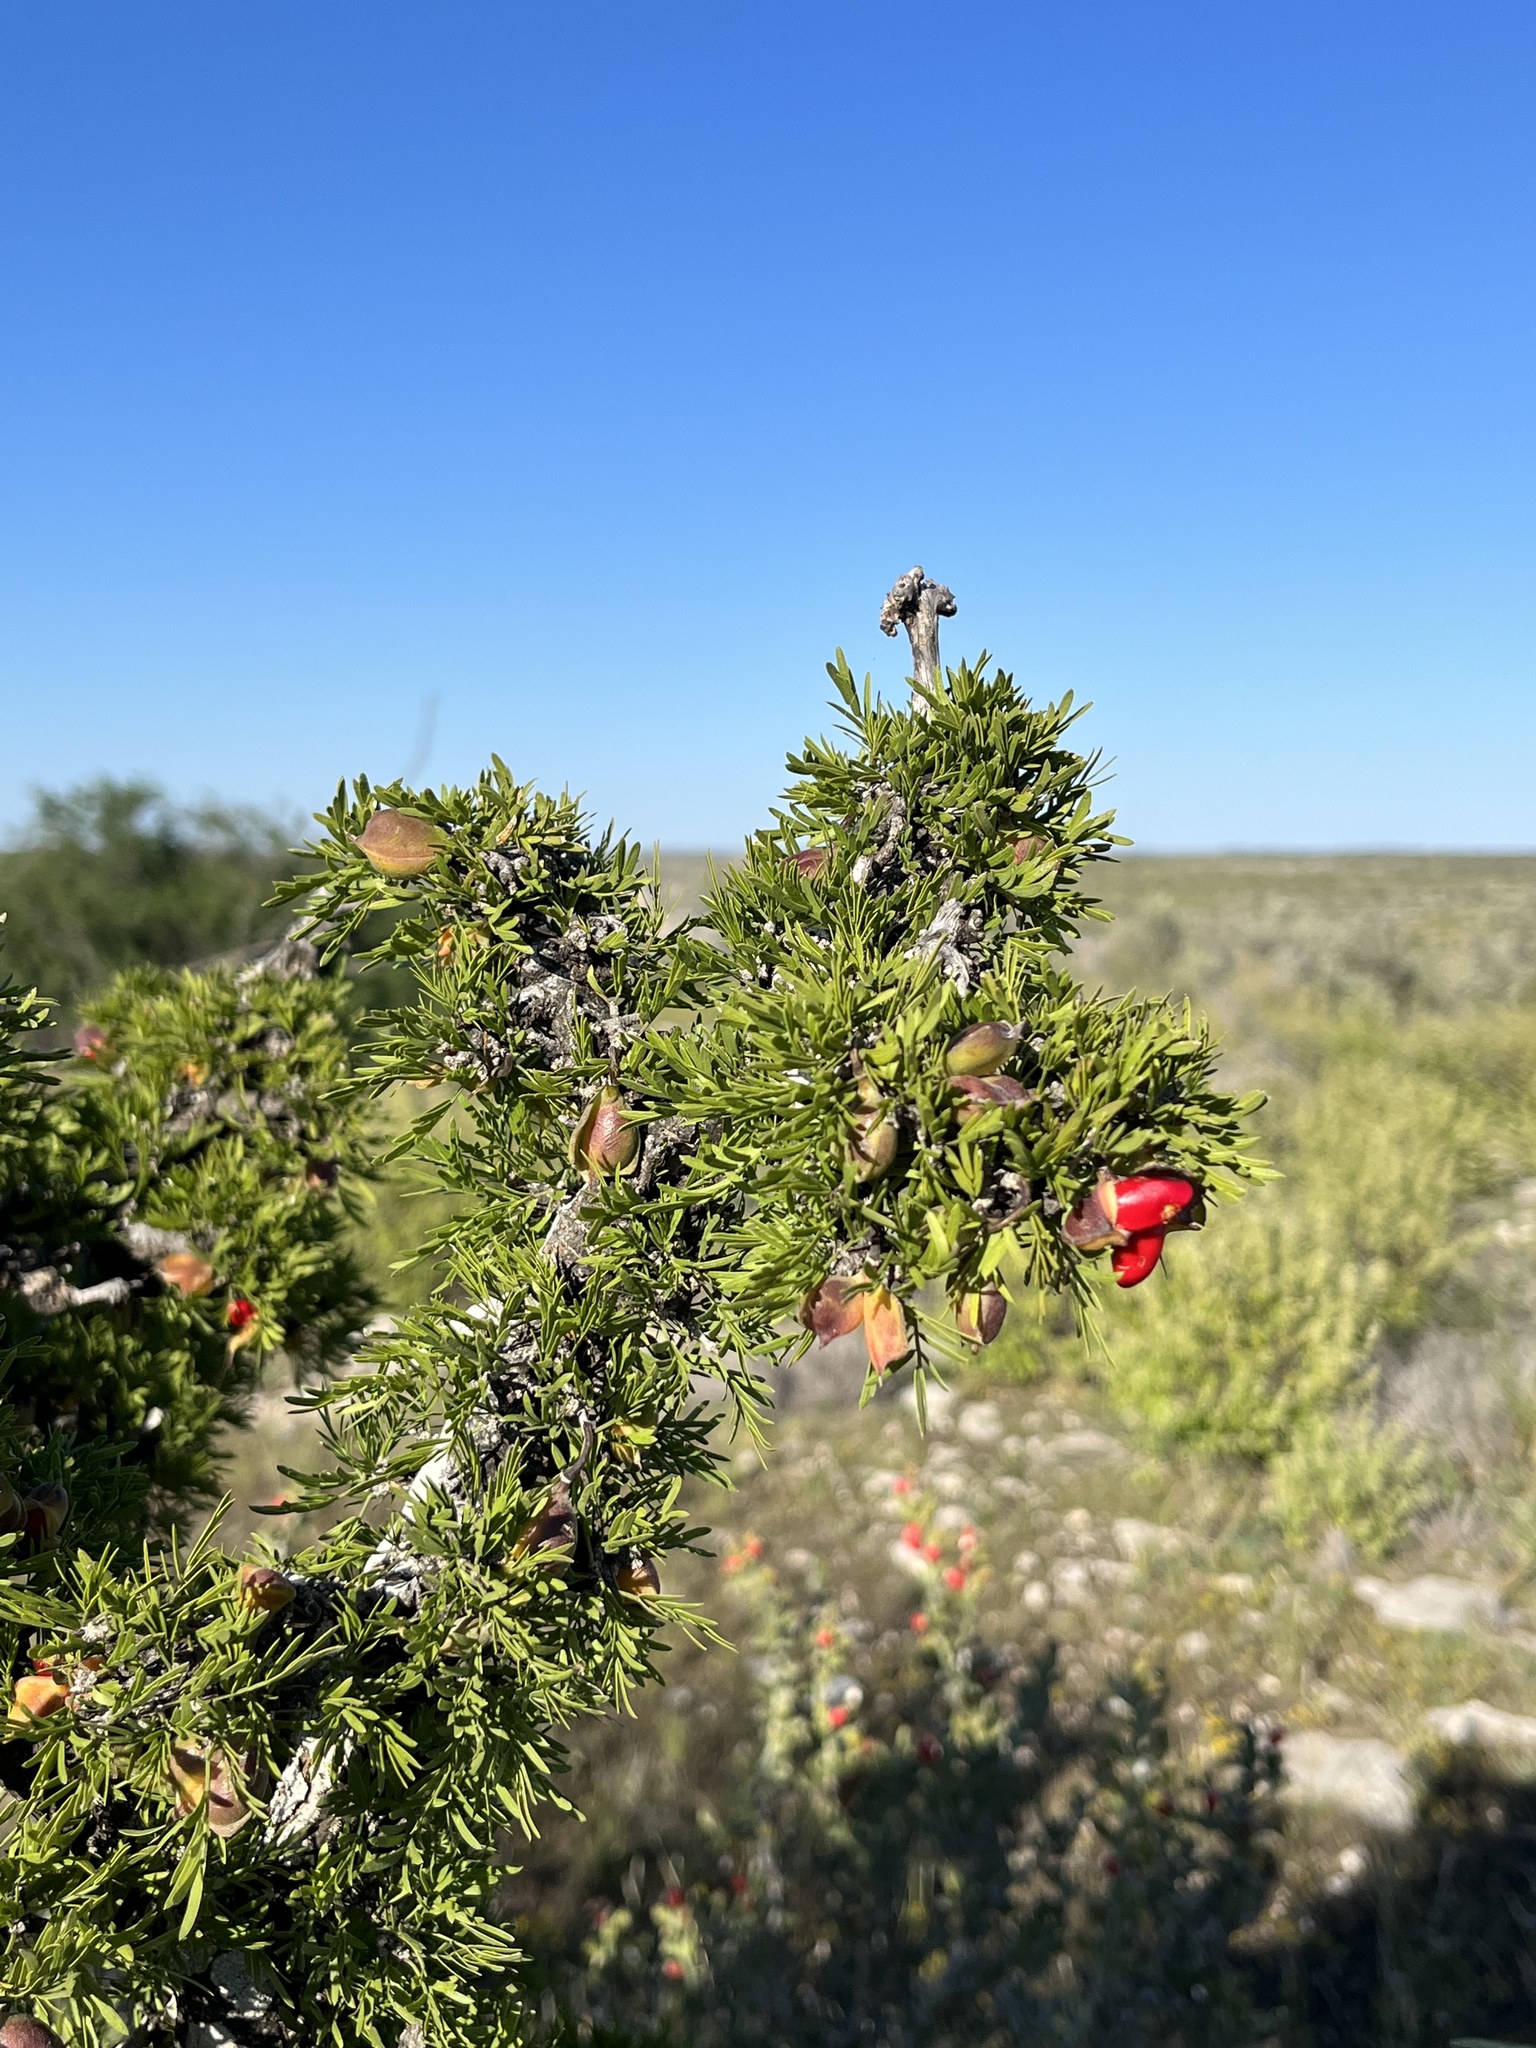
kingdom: Plantae
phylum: Tracheophyta
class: Magnoliopsida
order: Zygophyllales
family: Zygophyllaceae
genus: Porlieria
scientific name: Porlieria angustifolia
